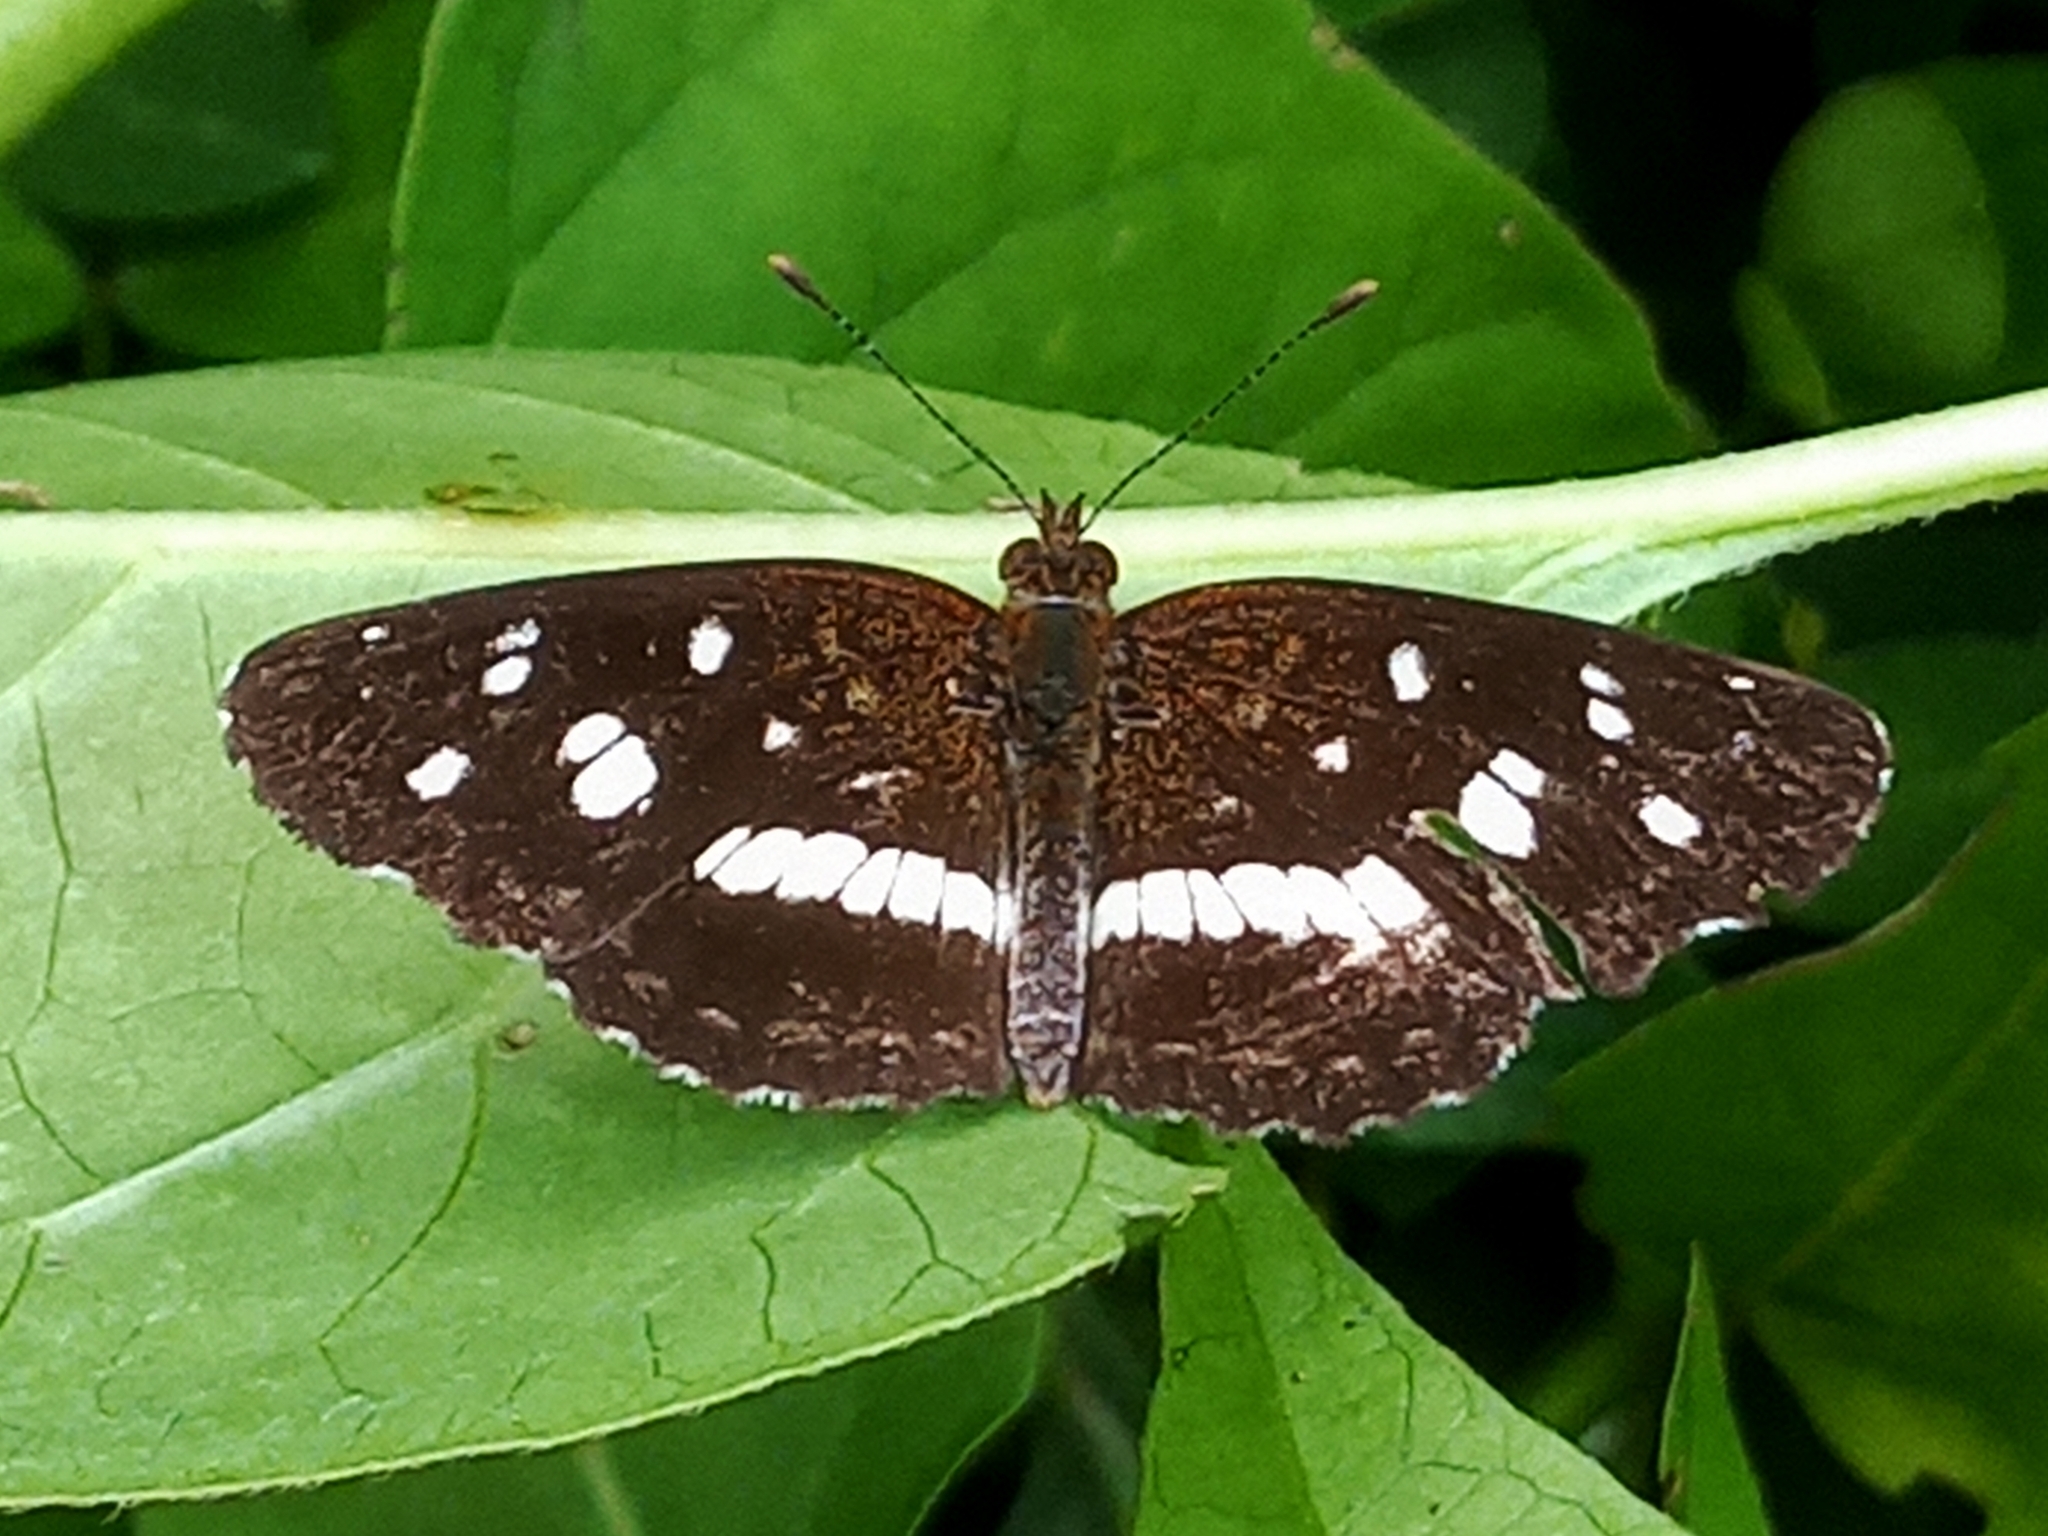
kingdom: Animalia
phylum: Arthropoda
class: Insecta
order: Lepidoptera
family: Nymphalidae
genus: Ortilia
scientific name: Ortilia ithra
